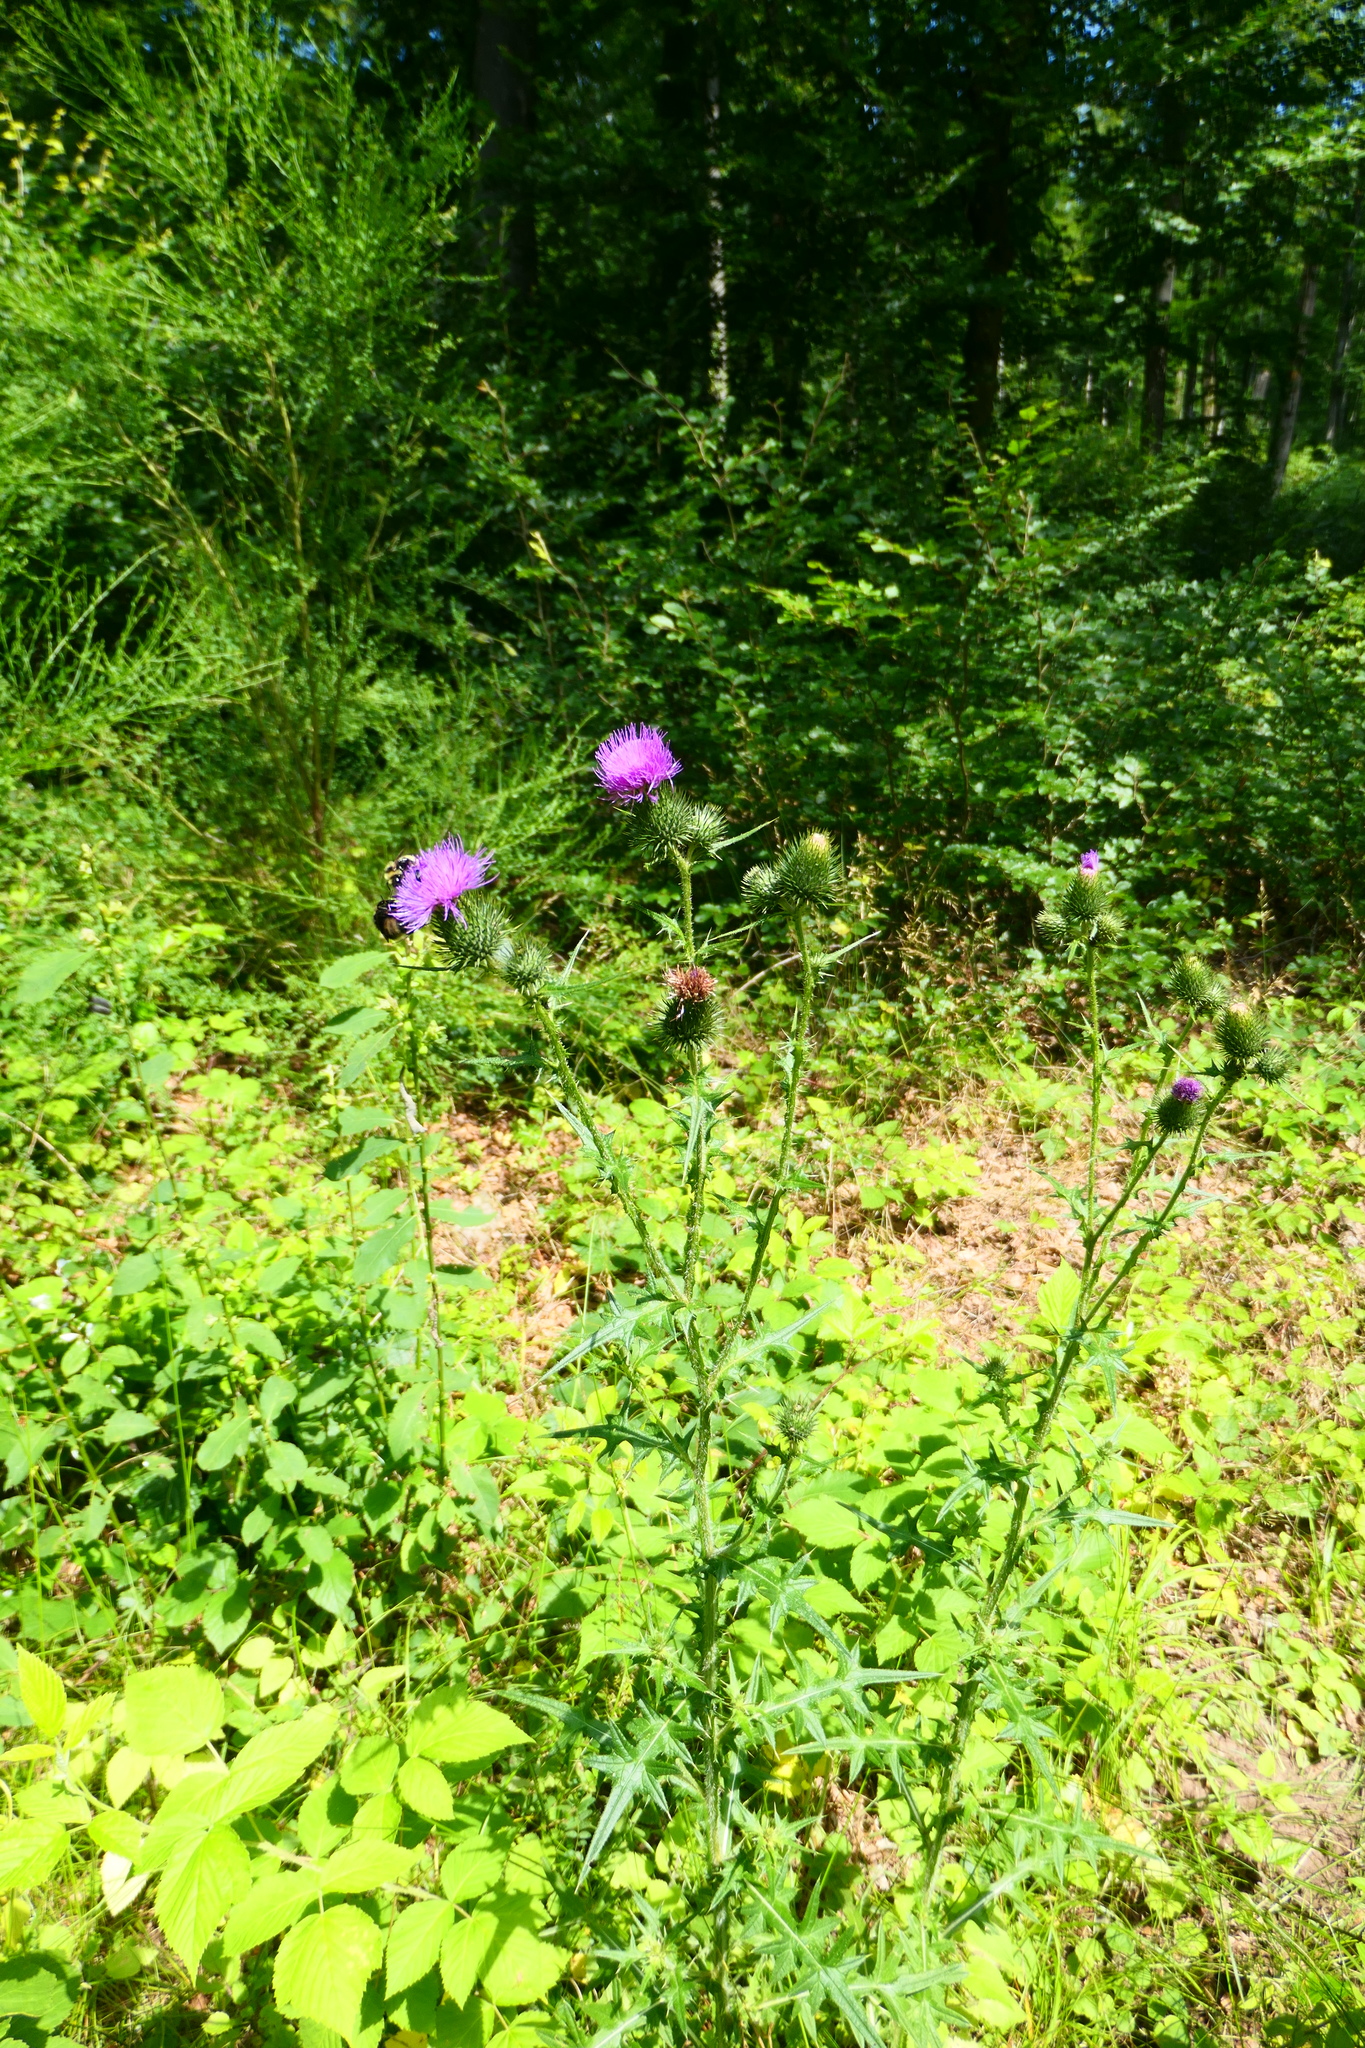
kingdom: Plantae
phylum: Tracheophyta
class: Magnoliopsida
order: Asterales
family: Asteraceae
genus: Cirsium
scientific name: Cirsium vulgare
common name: Bull thistle
